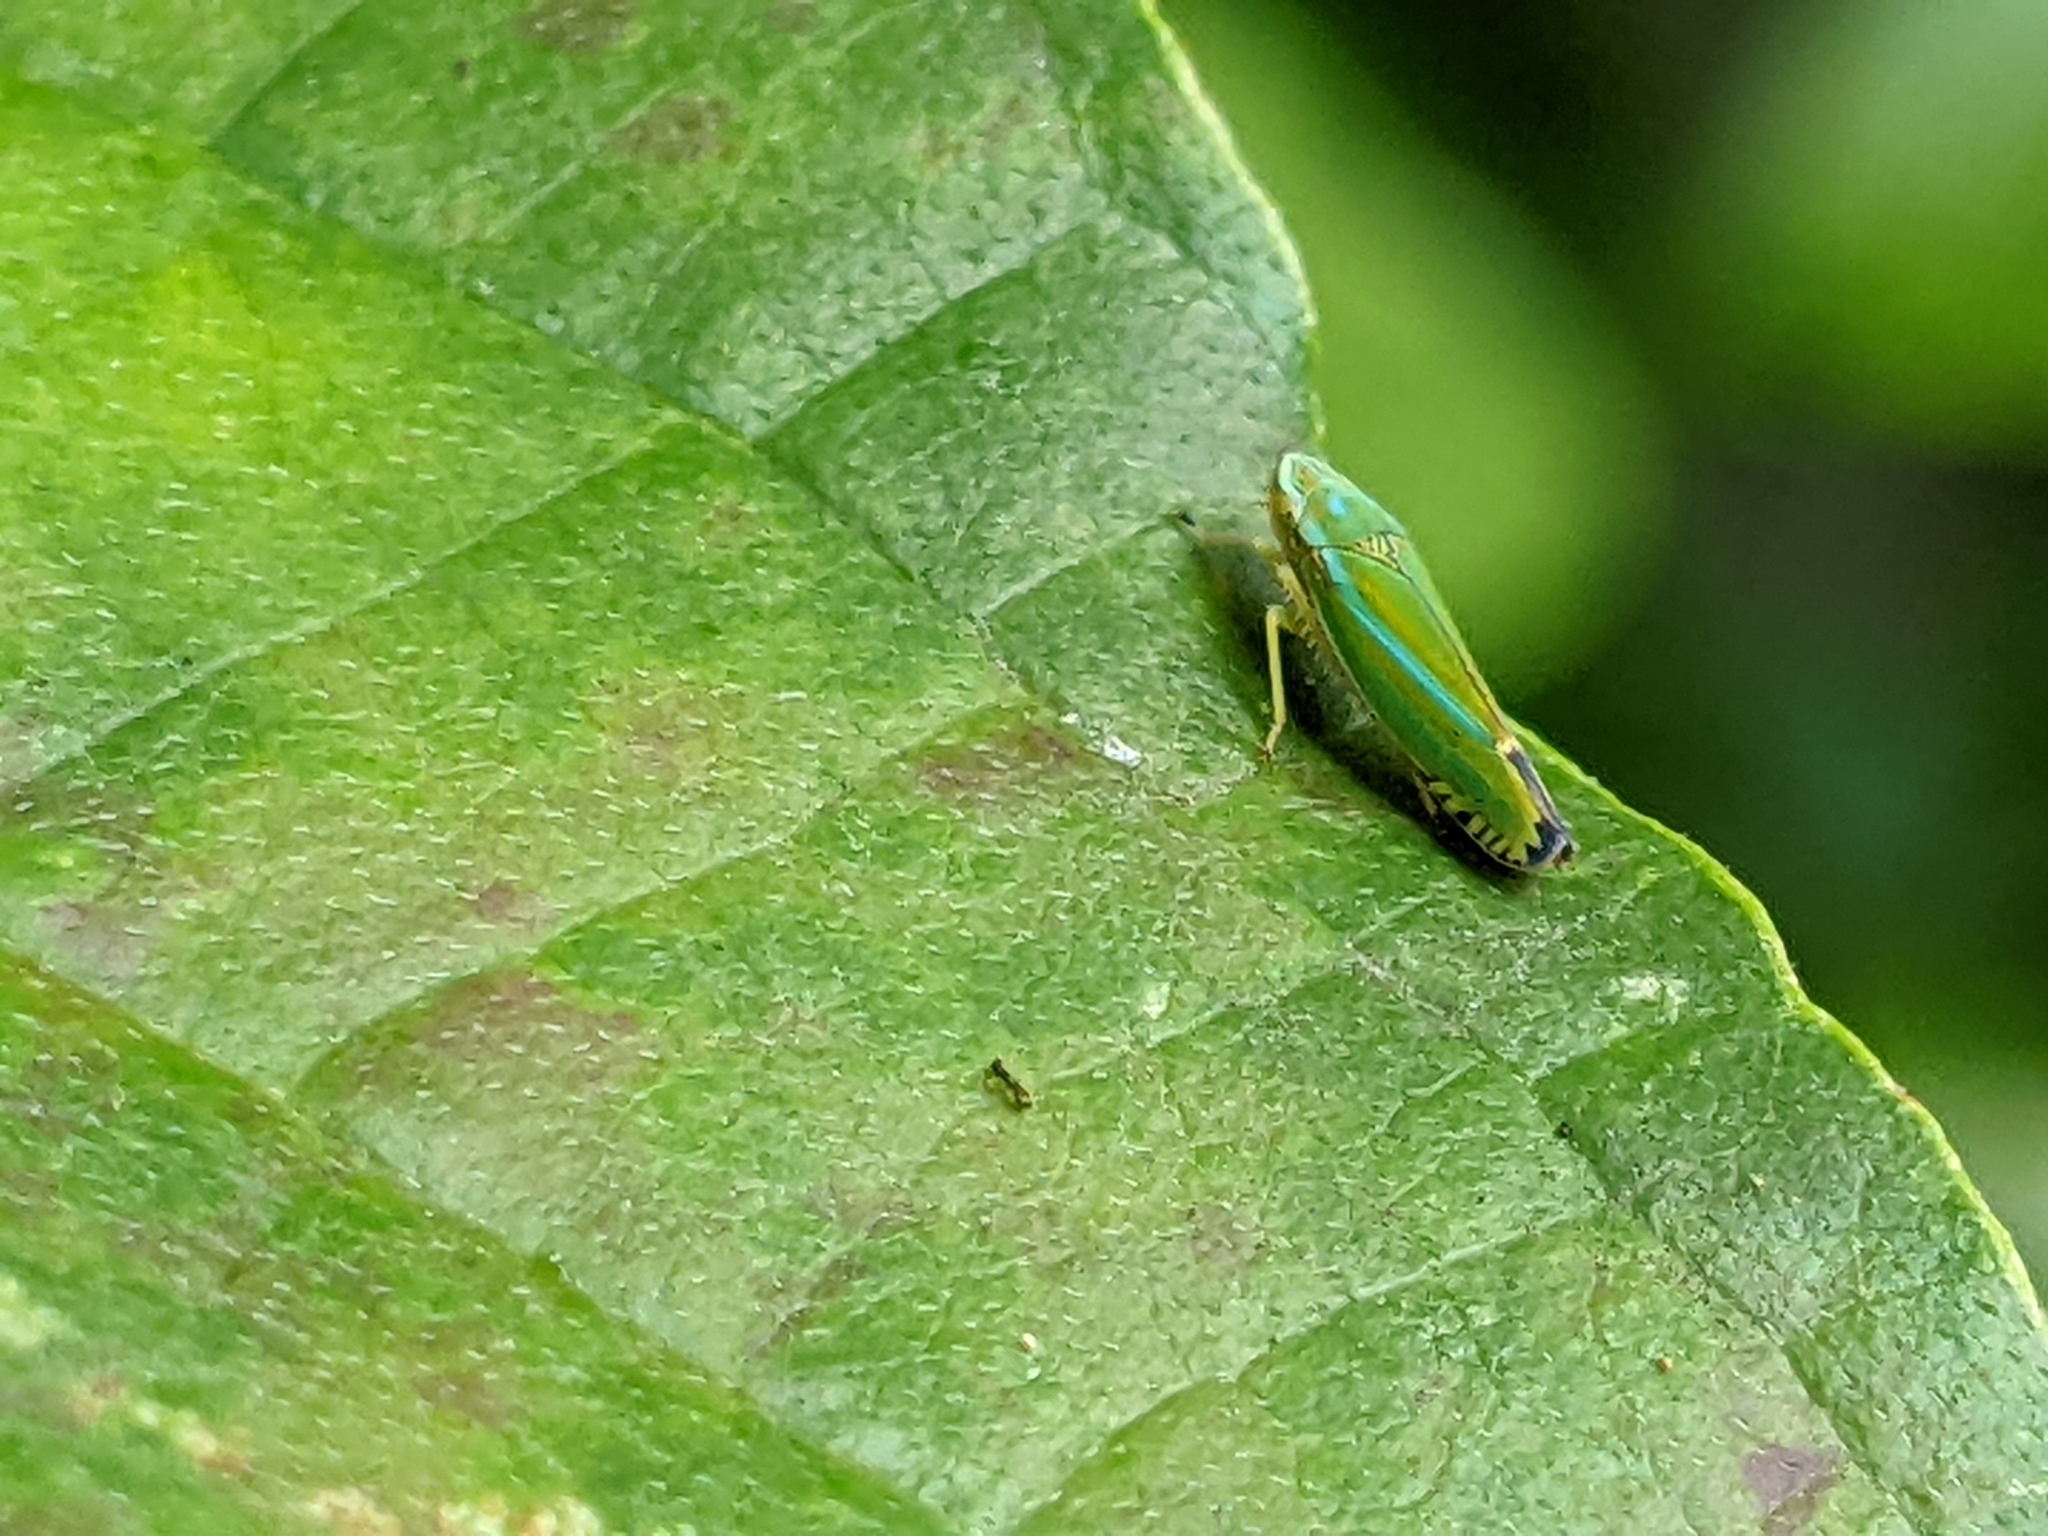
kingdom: Animalia
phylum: Arthropoda
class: Insecta
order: Hemiptera
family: Cicadellidae
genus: Graphocephala
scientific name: Graphocephala versuta
